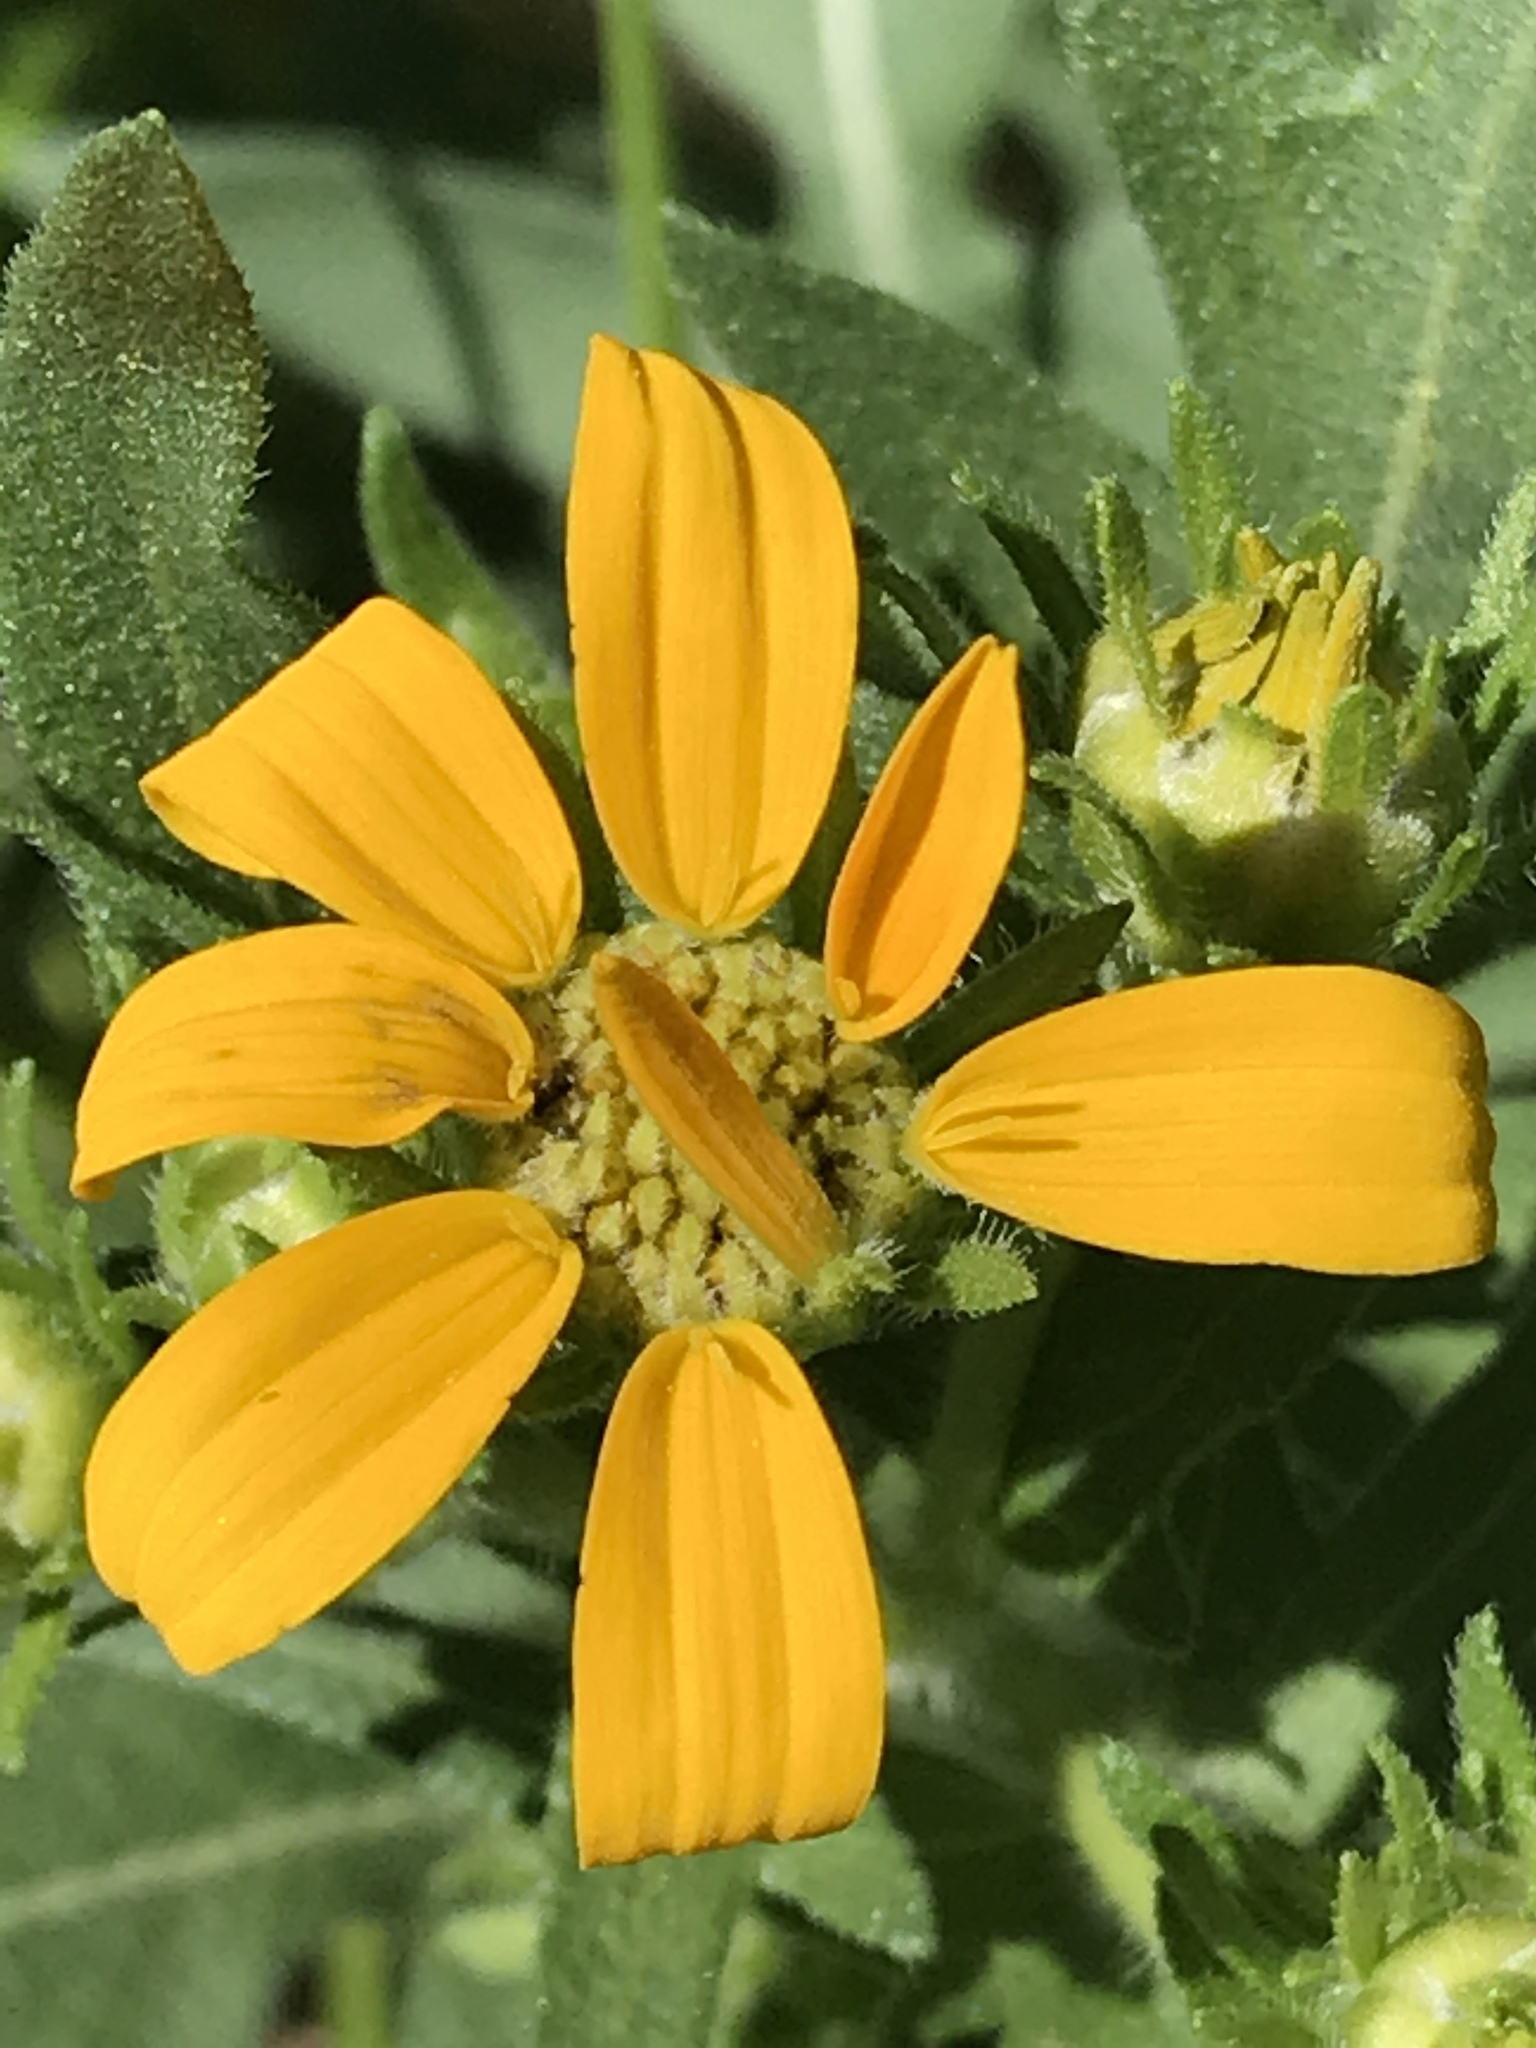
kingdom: Plantae
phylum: Tracheophyta
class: Magnoliopsida
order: Asterales
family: Asteraceae
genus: Engelmannia
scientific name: Engelmannia peristenia
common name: Engelmann's daisy
